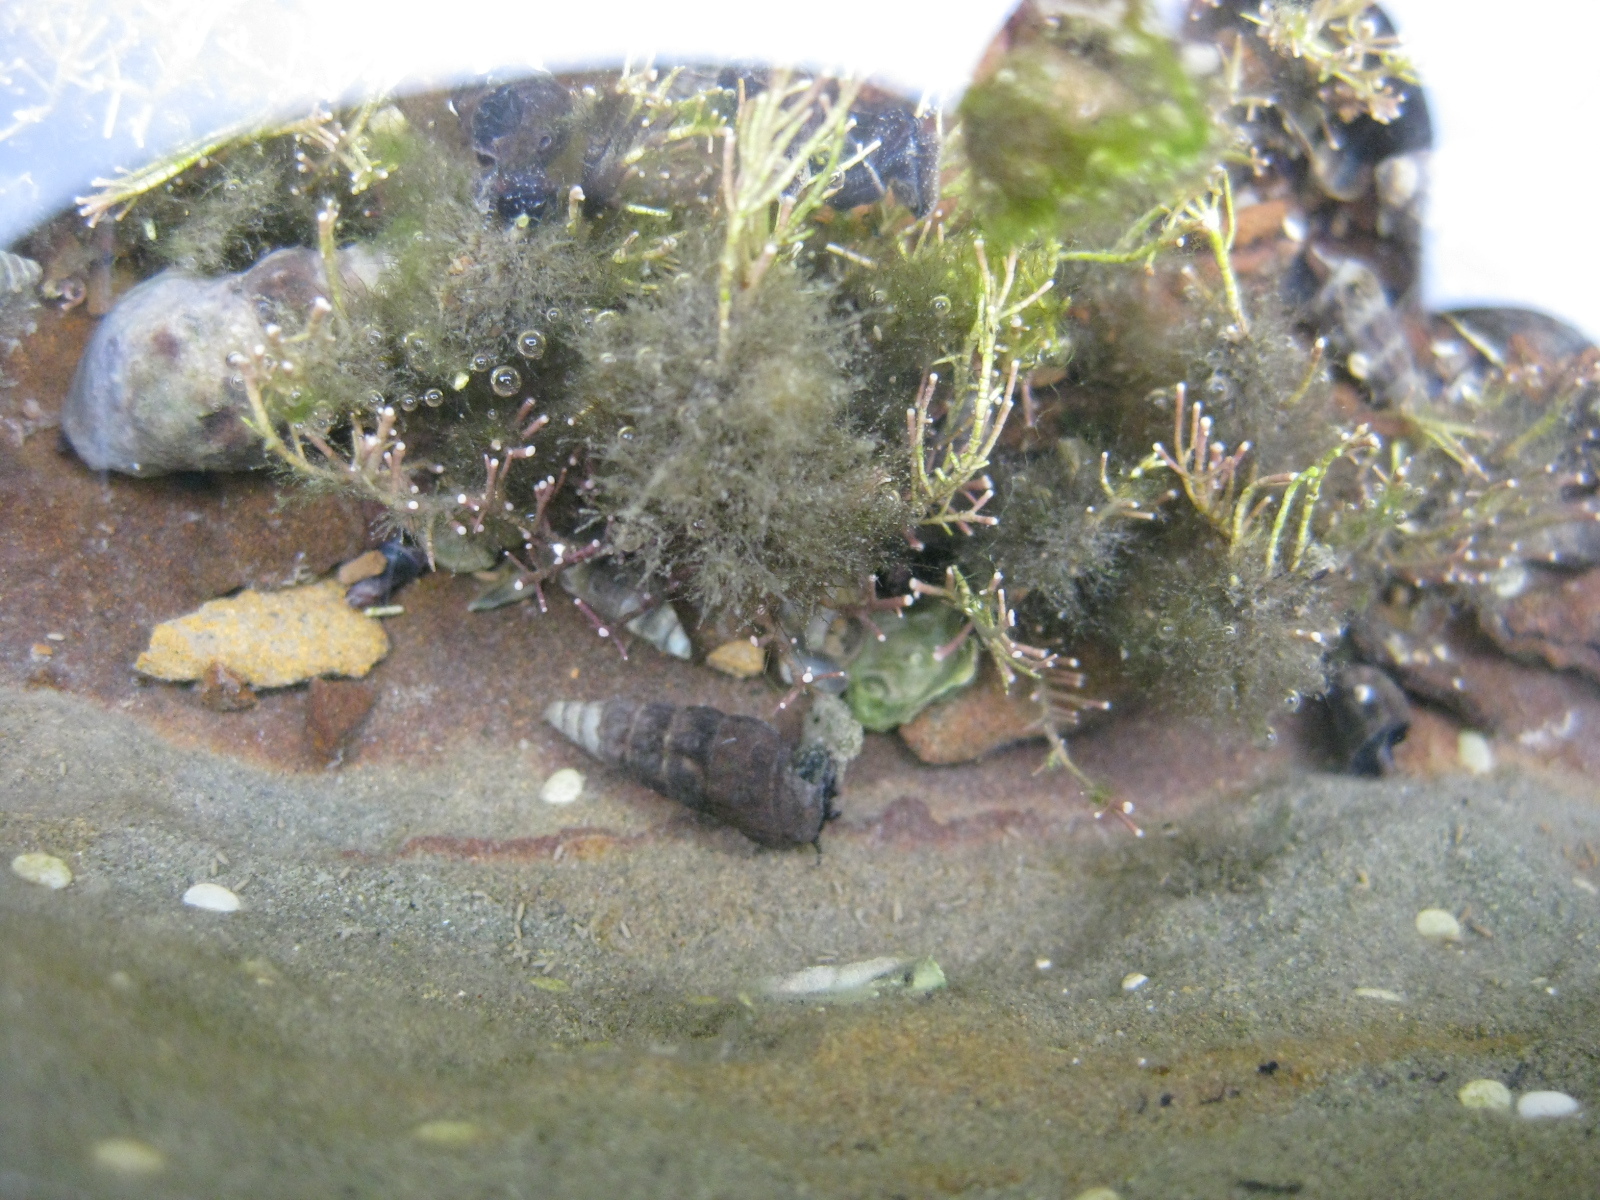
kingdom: Plantae
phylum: Rhodophyta
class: Florideophyceae
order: Corallinales
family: Corallinaceae
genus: Corallina
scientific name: Corallina officinalis
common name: Coral weed
